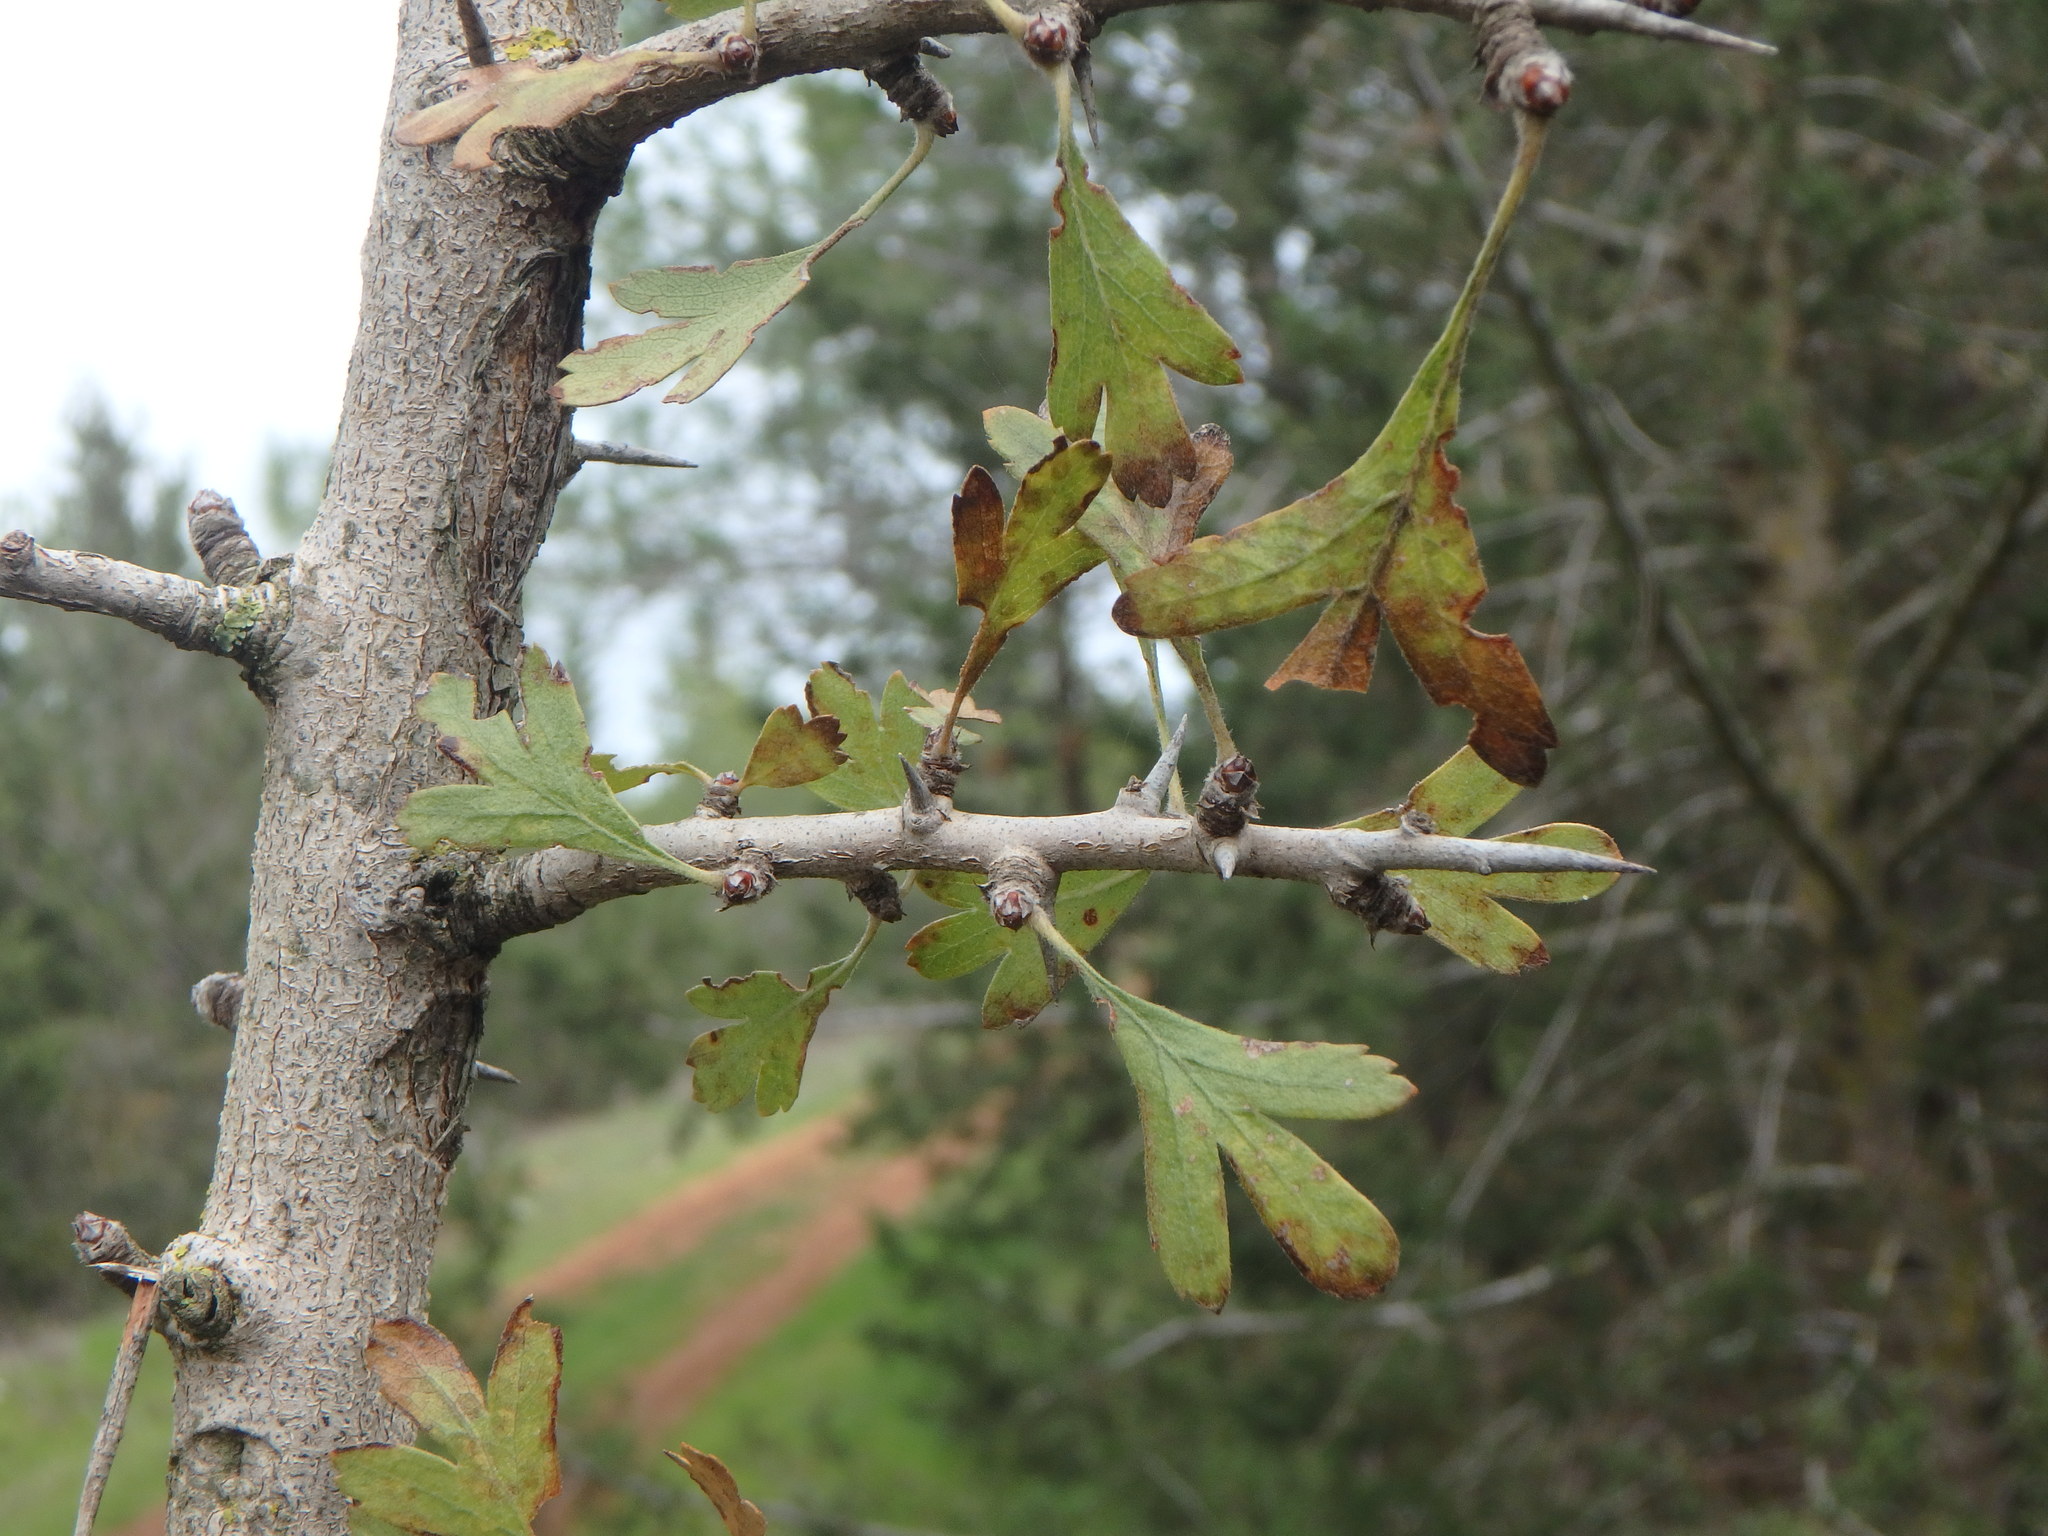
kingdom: Plantae
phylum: Tracheophyta
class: Magnoliopsida
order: Rosales
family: Rosaceae
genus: Crataegus
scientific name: Crataegus azarolus
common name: Azarole
